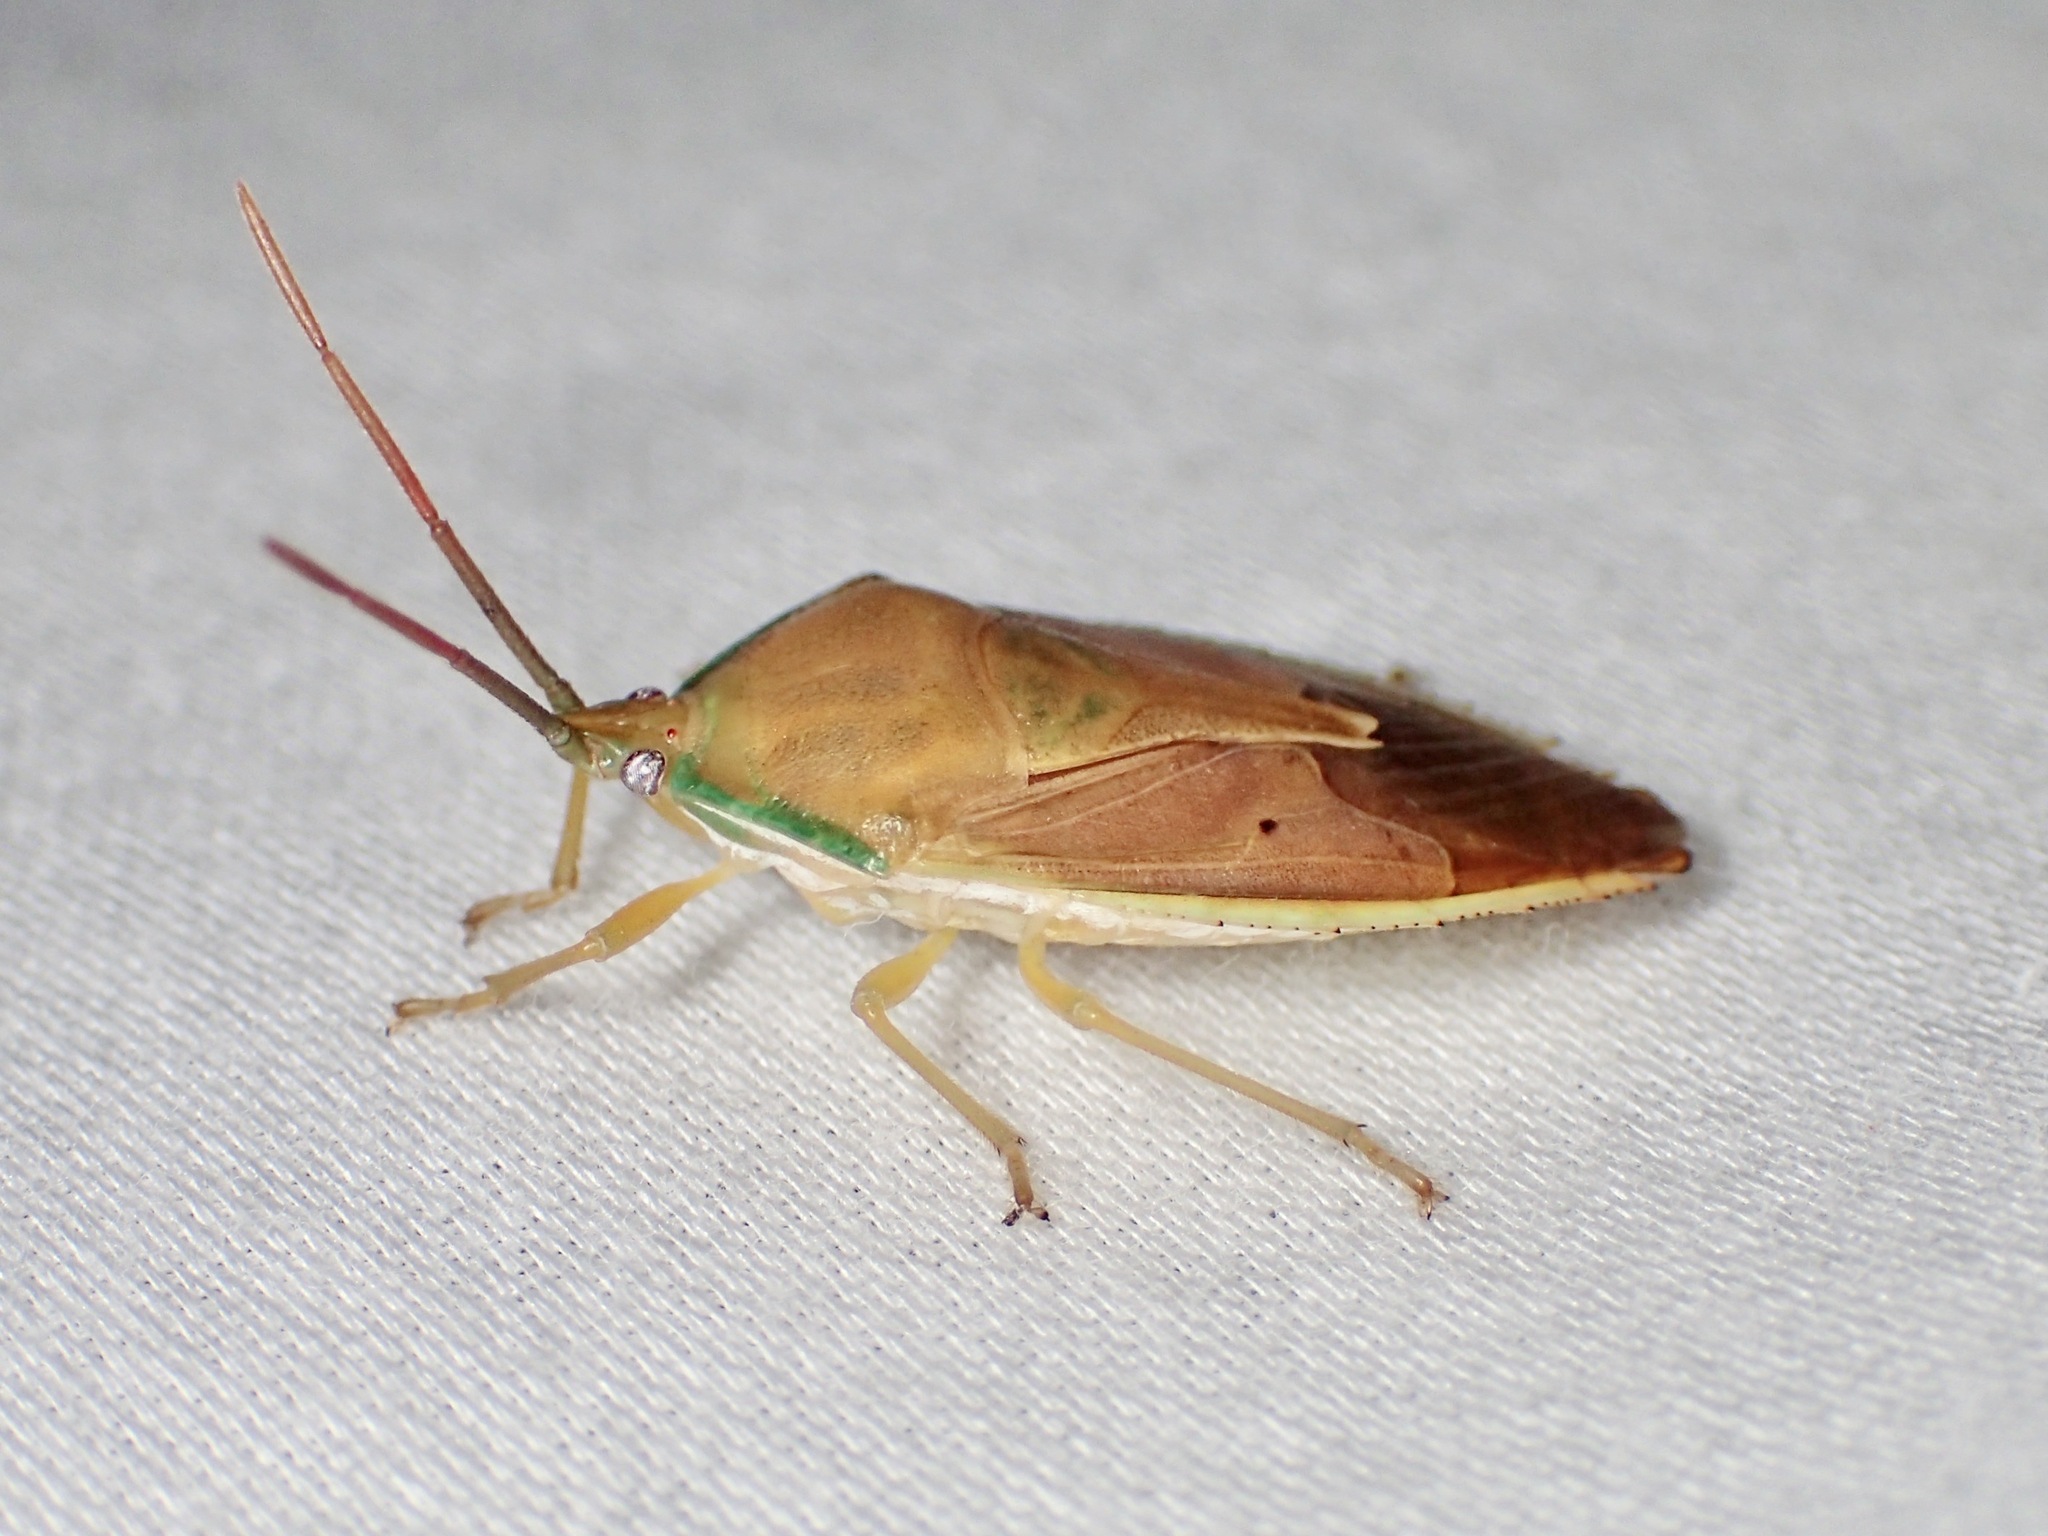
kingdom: Animalia
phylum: Arthropoda
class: Insecta
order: Hemiptera
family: Tessaratomidae
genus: Agapophyta
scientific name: Agapophyta bipunctata
